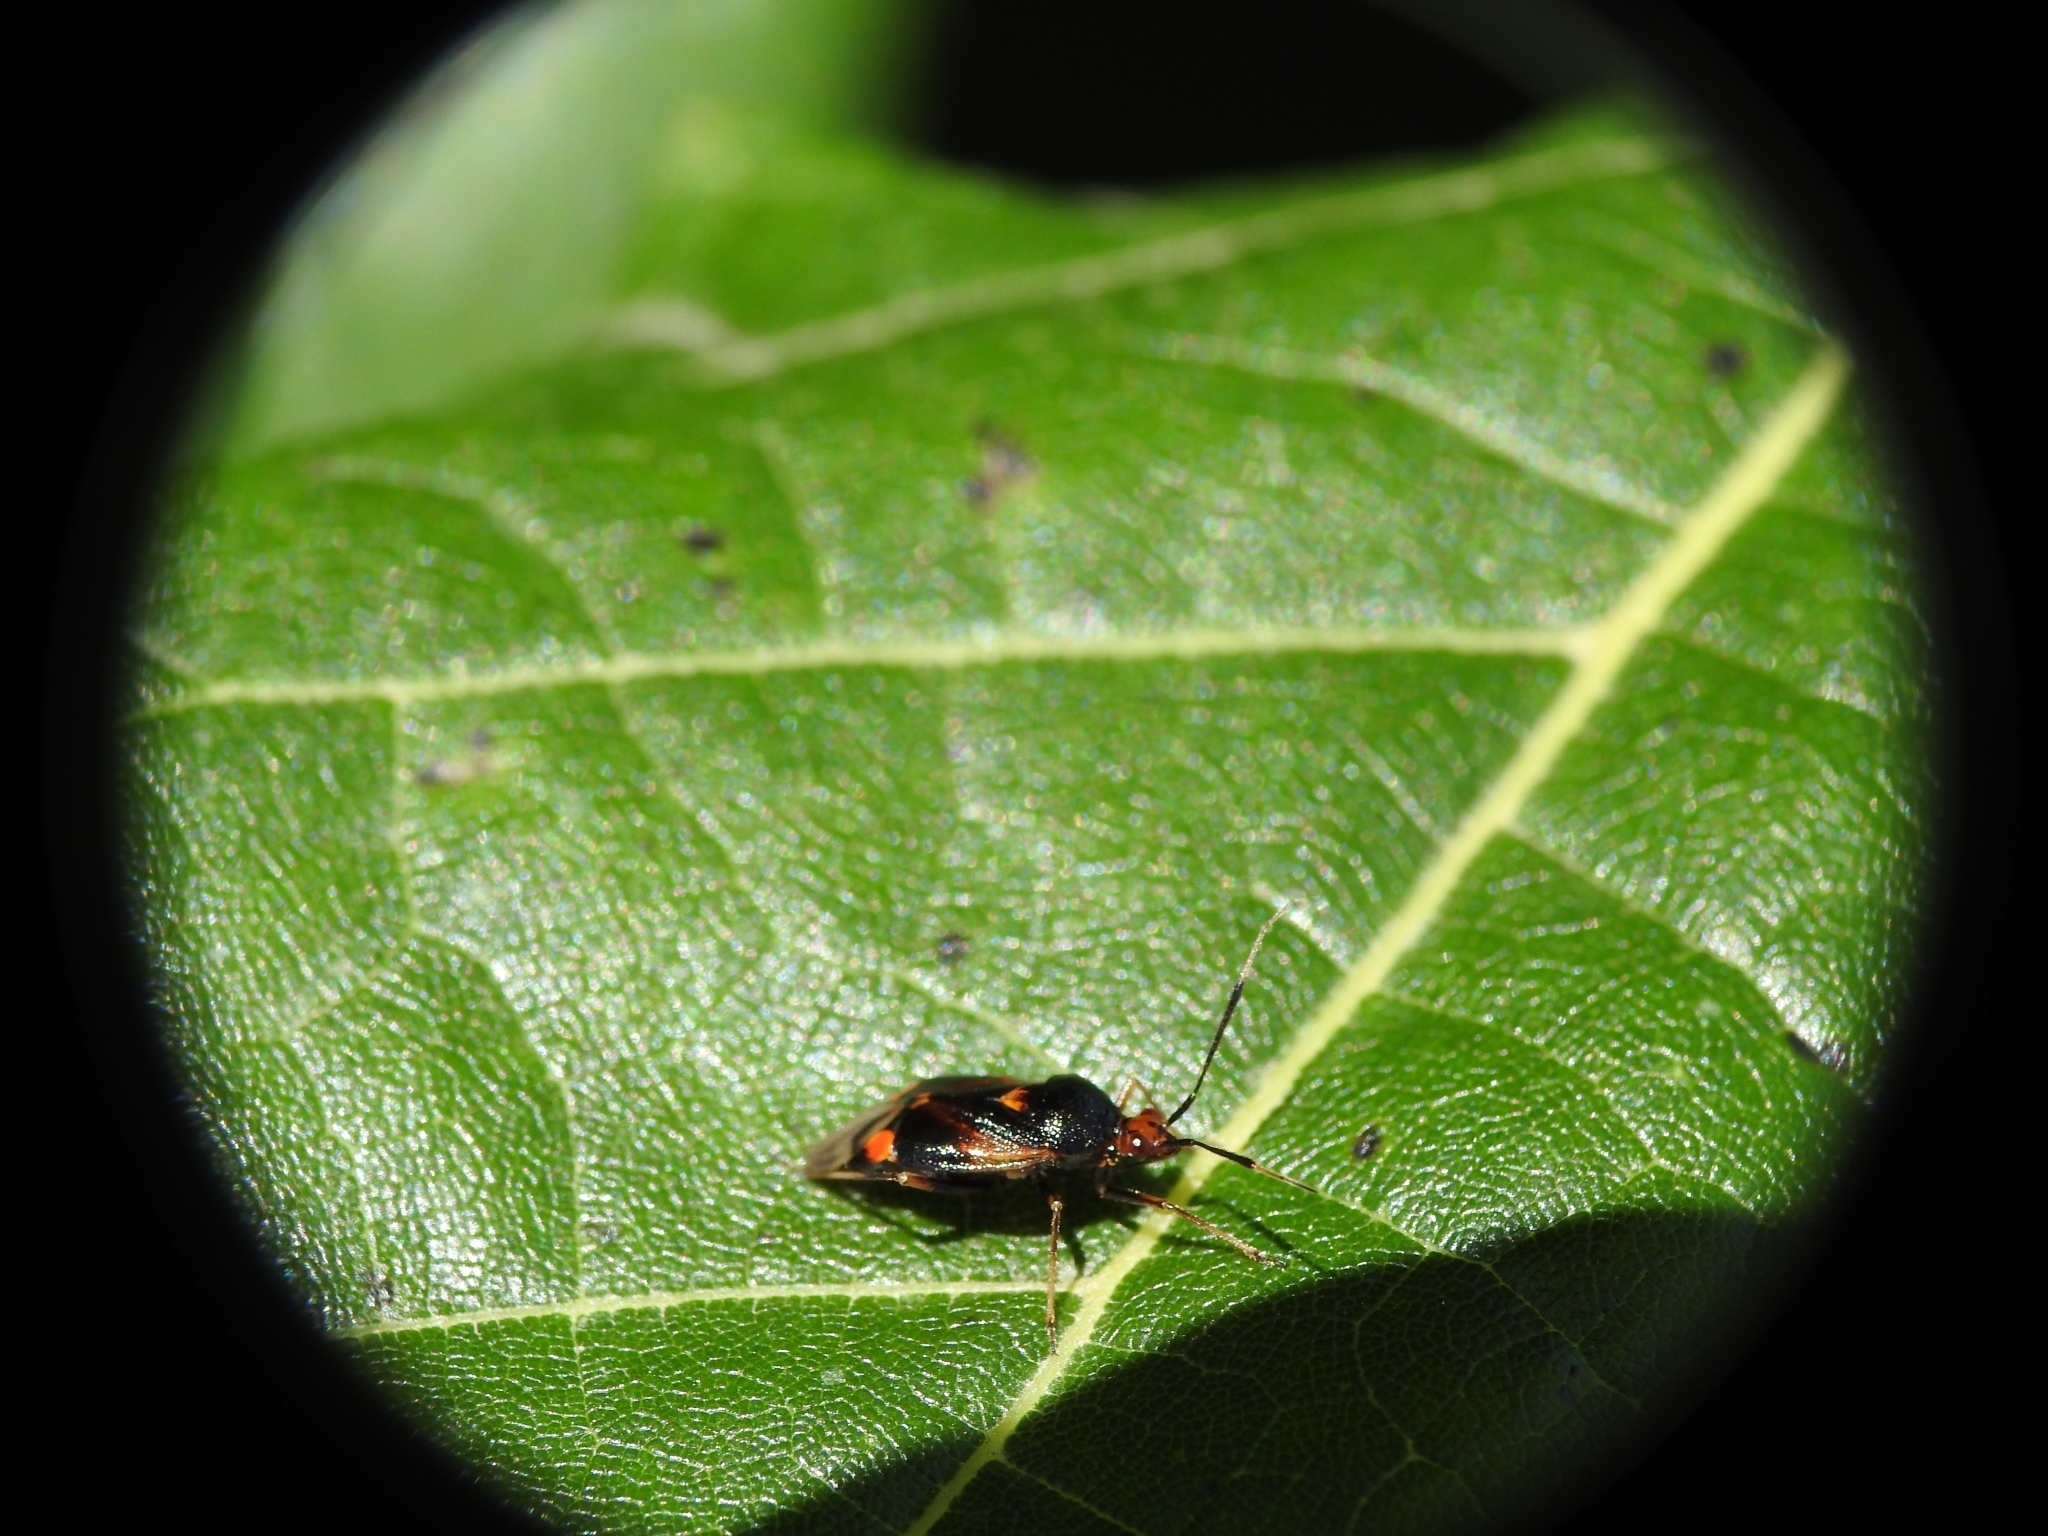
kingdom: Animalia
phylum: Arthropoda
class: Insecta
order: Hemiptera
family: Miridae
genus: Deraeocoris
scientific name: Deraeocoris ruber
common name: Plant bug
